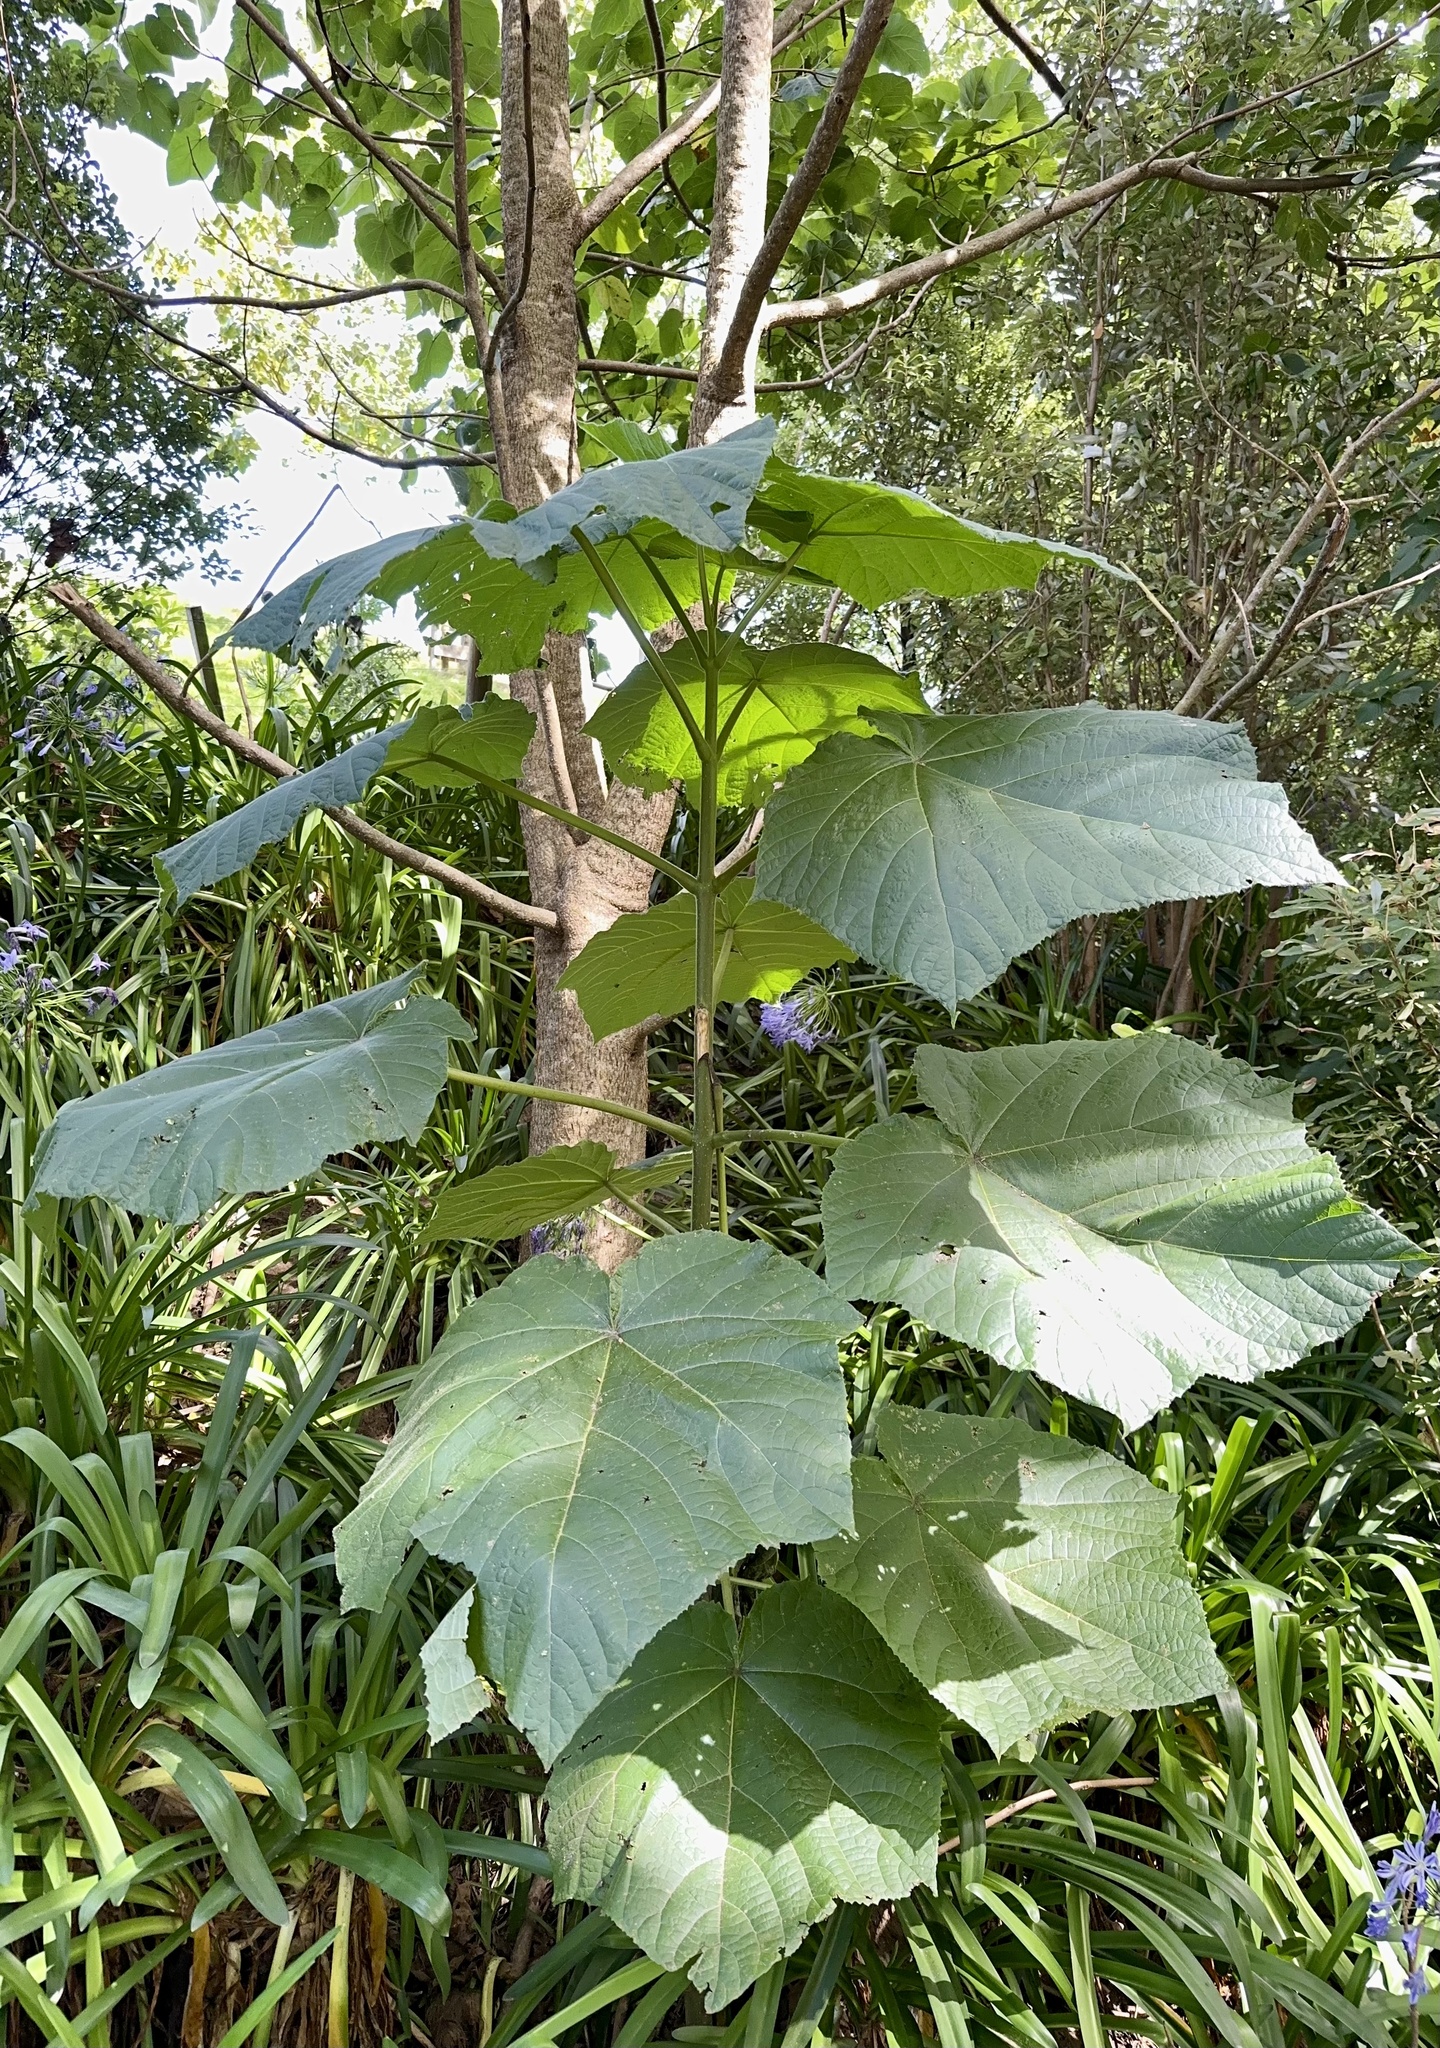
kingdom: Plantae
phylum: Tracheophyta
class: Magnoliopsida
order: Lamiales
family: Paulowniaceae
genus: Paulownia
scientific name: Paulownia tomentosa
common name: Foxglove-tree
